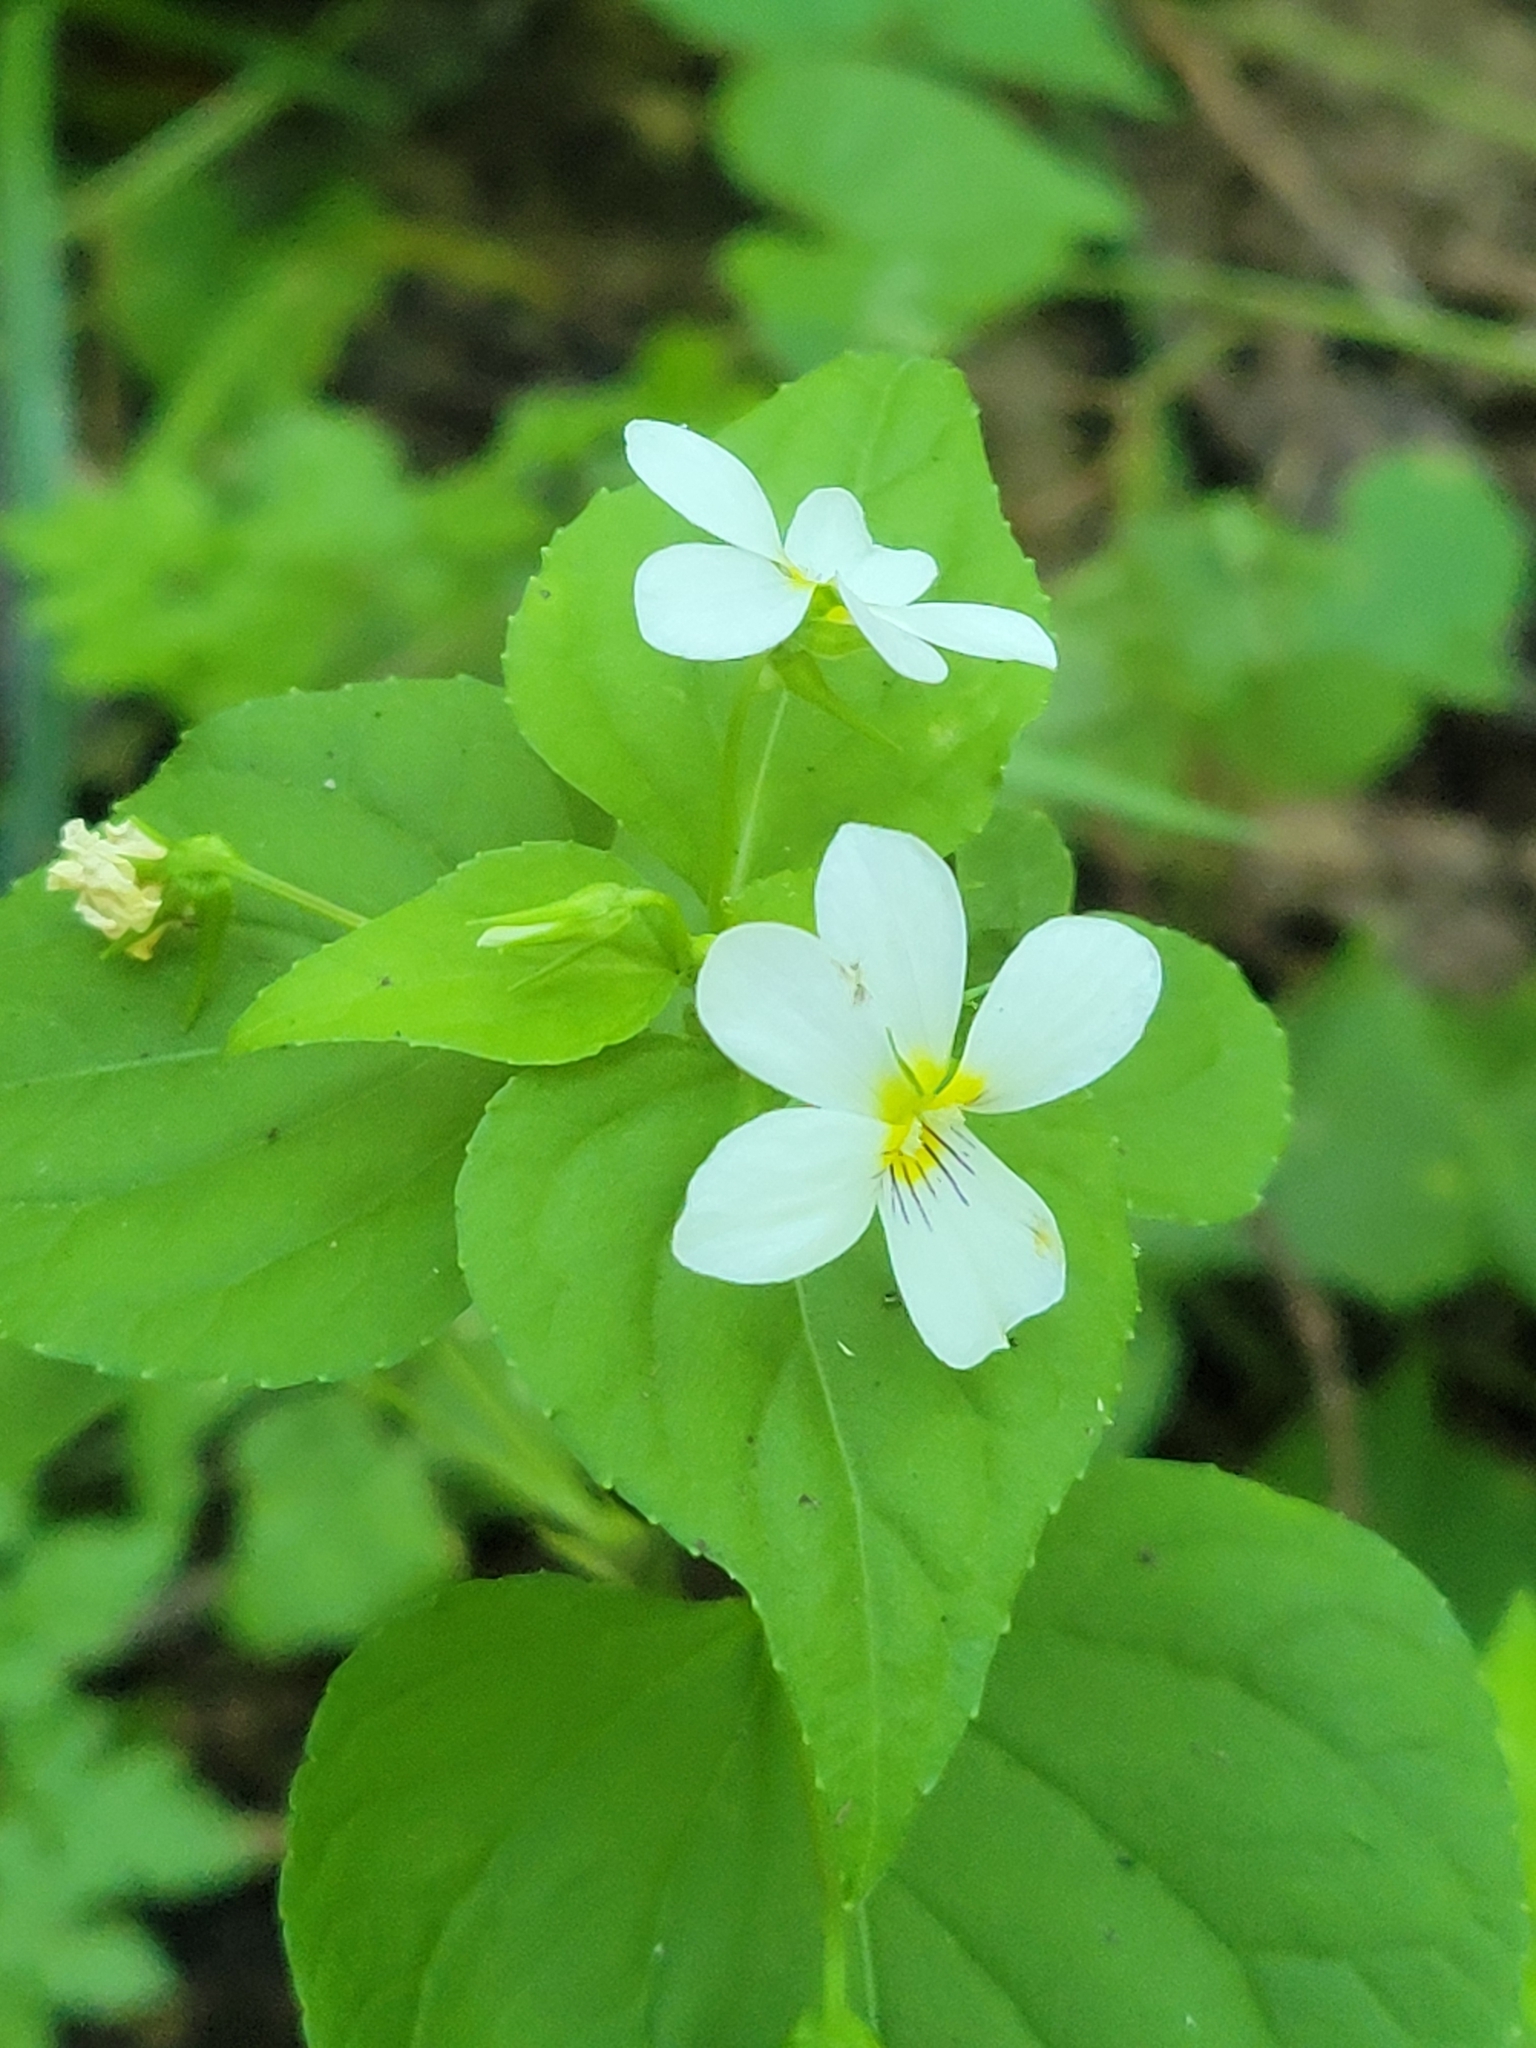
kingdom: Plantae
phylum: Tracheophyta
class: Magnoliopsida
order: Malpighiales
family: Violaceae
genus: Viola
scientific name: Viola canadensis
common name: Canada violet
